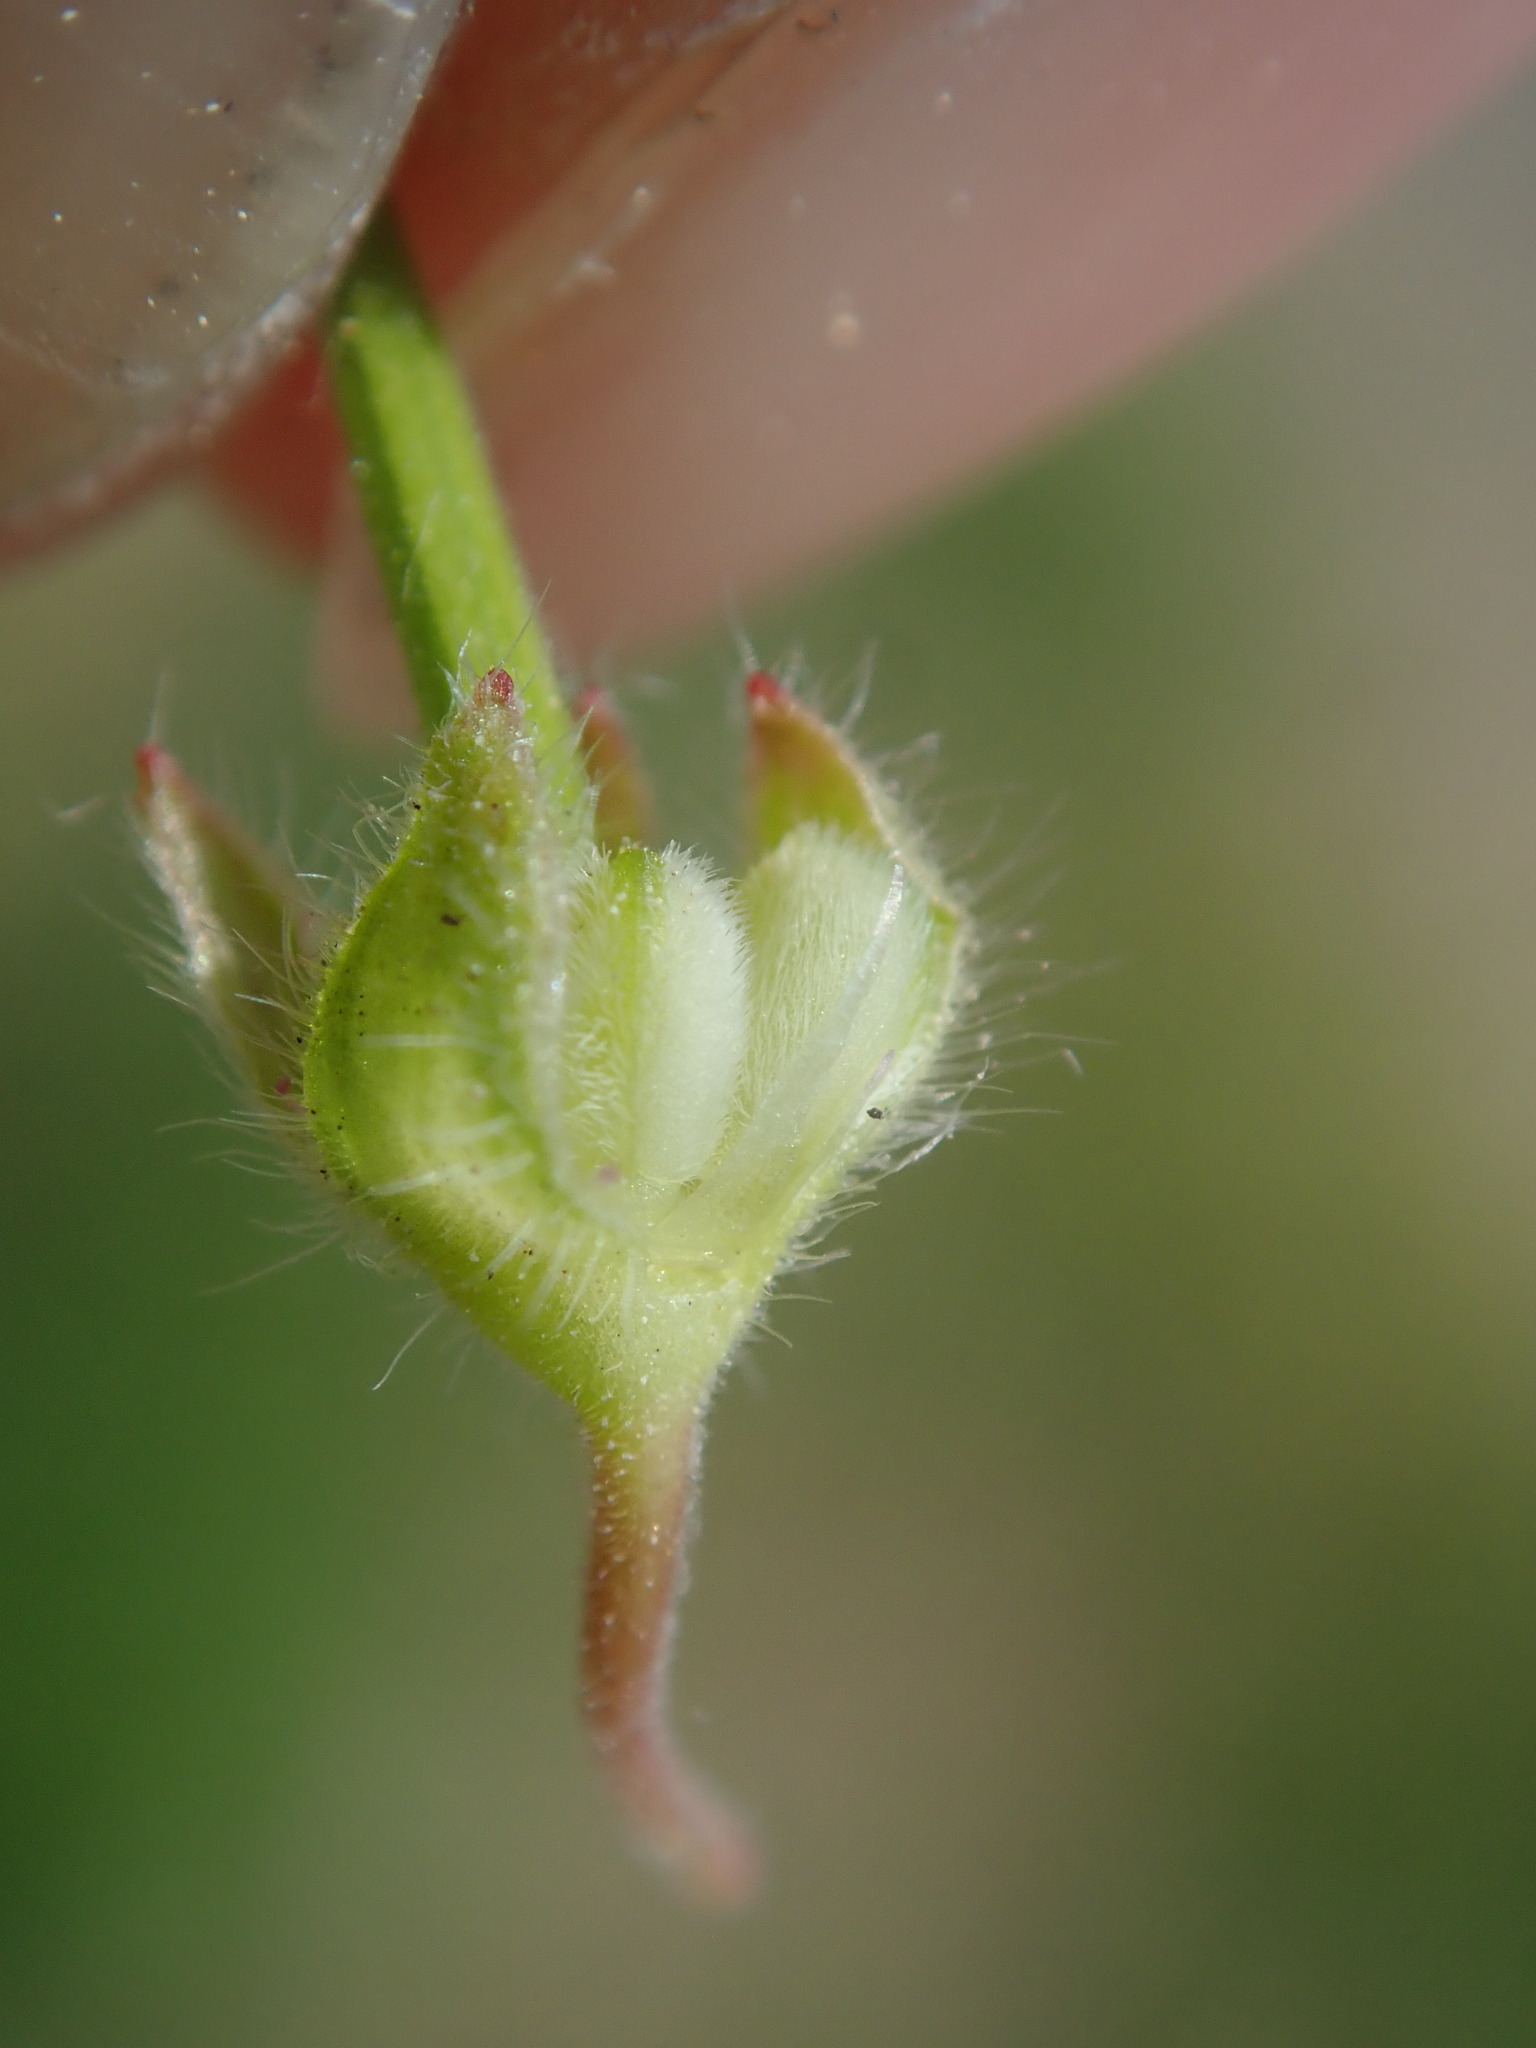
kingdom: Plantae
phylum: Tracheophyta
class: Magnoliopsida
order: Geraniales
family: Geraniaceae
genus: Geranium
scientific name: Geranium pusillum
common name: Small geranium
